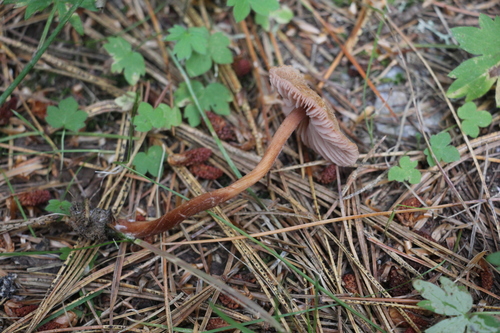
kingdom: Fungi
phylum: Basidiomycota
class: Agaricomycetes
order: Agaricales
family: Hydnangiaceae
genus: Laccaria
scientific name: Laccaria proxima
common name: Scurfy deceiver
